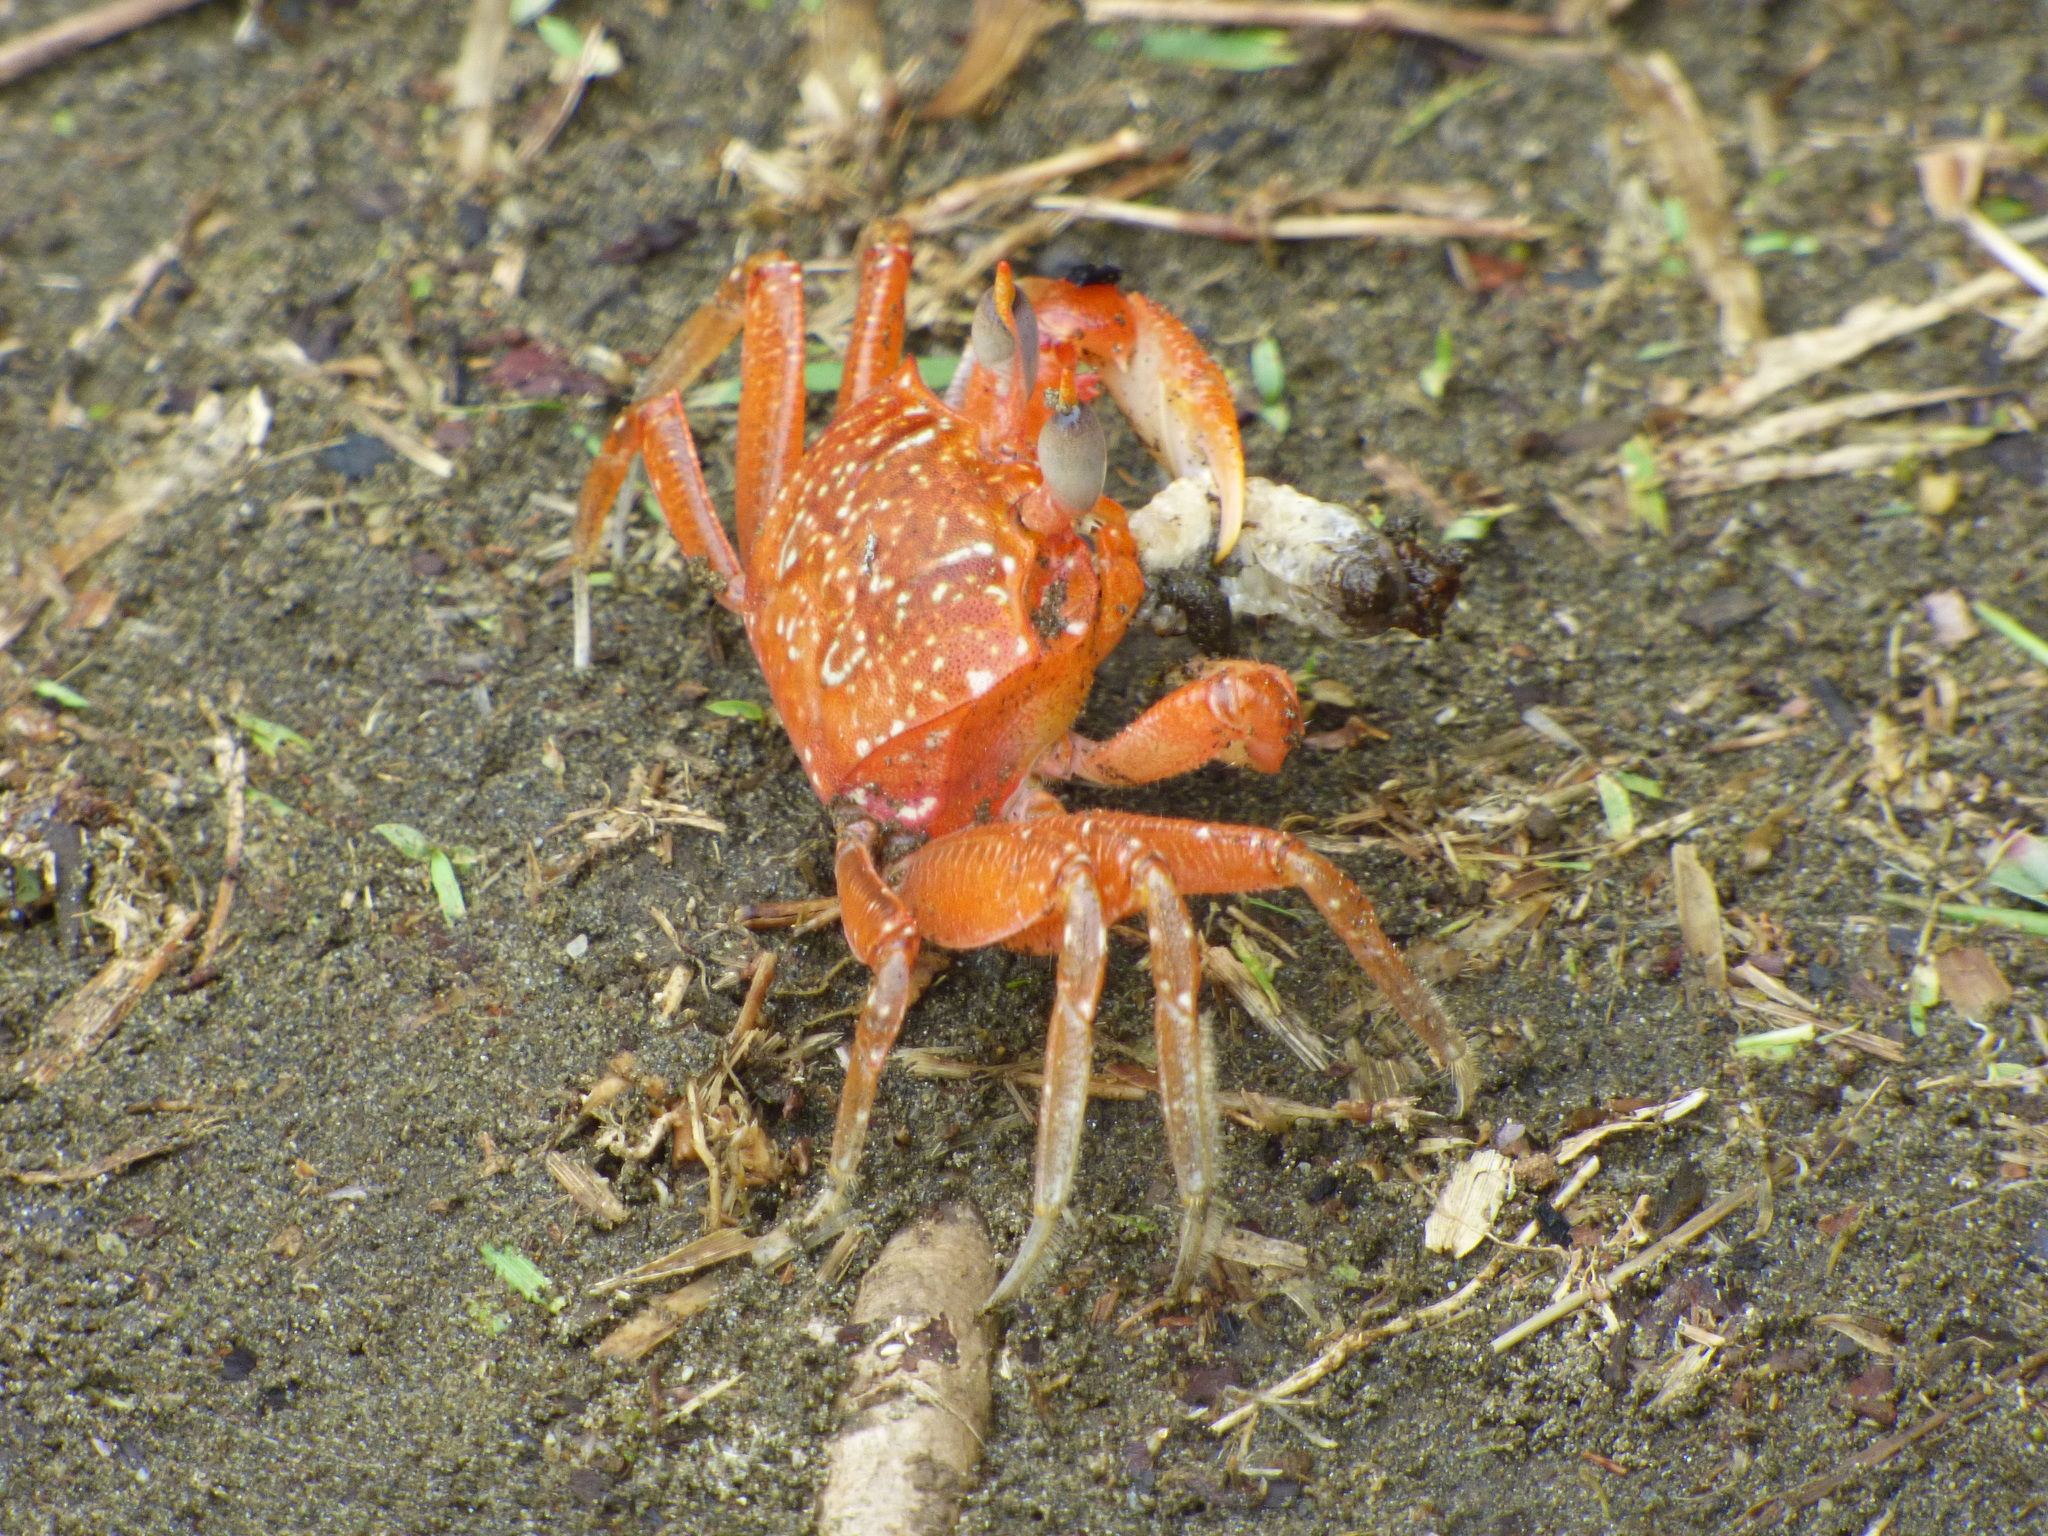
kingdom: Animalia
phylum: Arthropoda
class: Malacostraca
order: Decapoda
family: Ocypodidae
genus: Ocypode
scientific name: Ocypode gaudichaudii
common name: Pacific ghost crab
